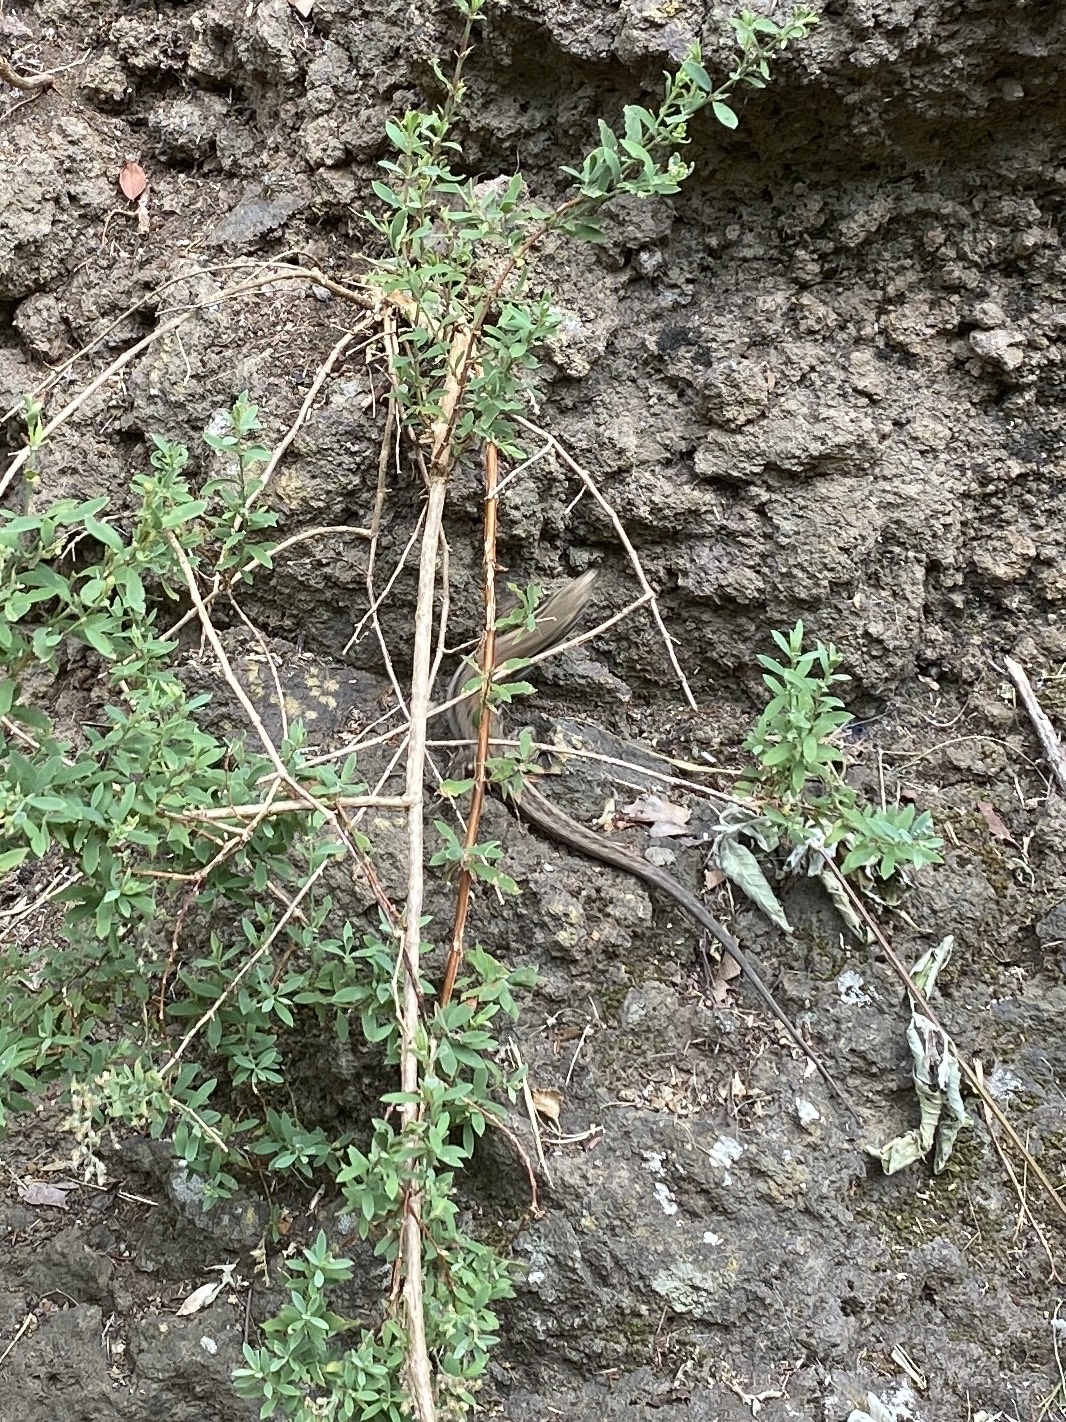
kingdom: Animalia
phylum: Chordata
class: Squamata
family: Lacertidae
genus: Gallotia
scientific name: Gallotia galloti
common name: Gallot's lizard
